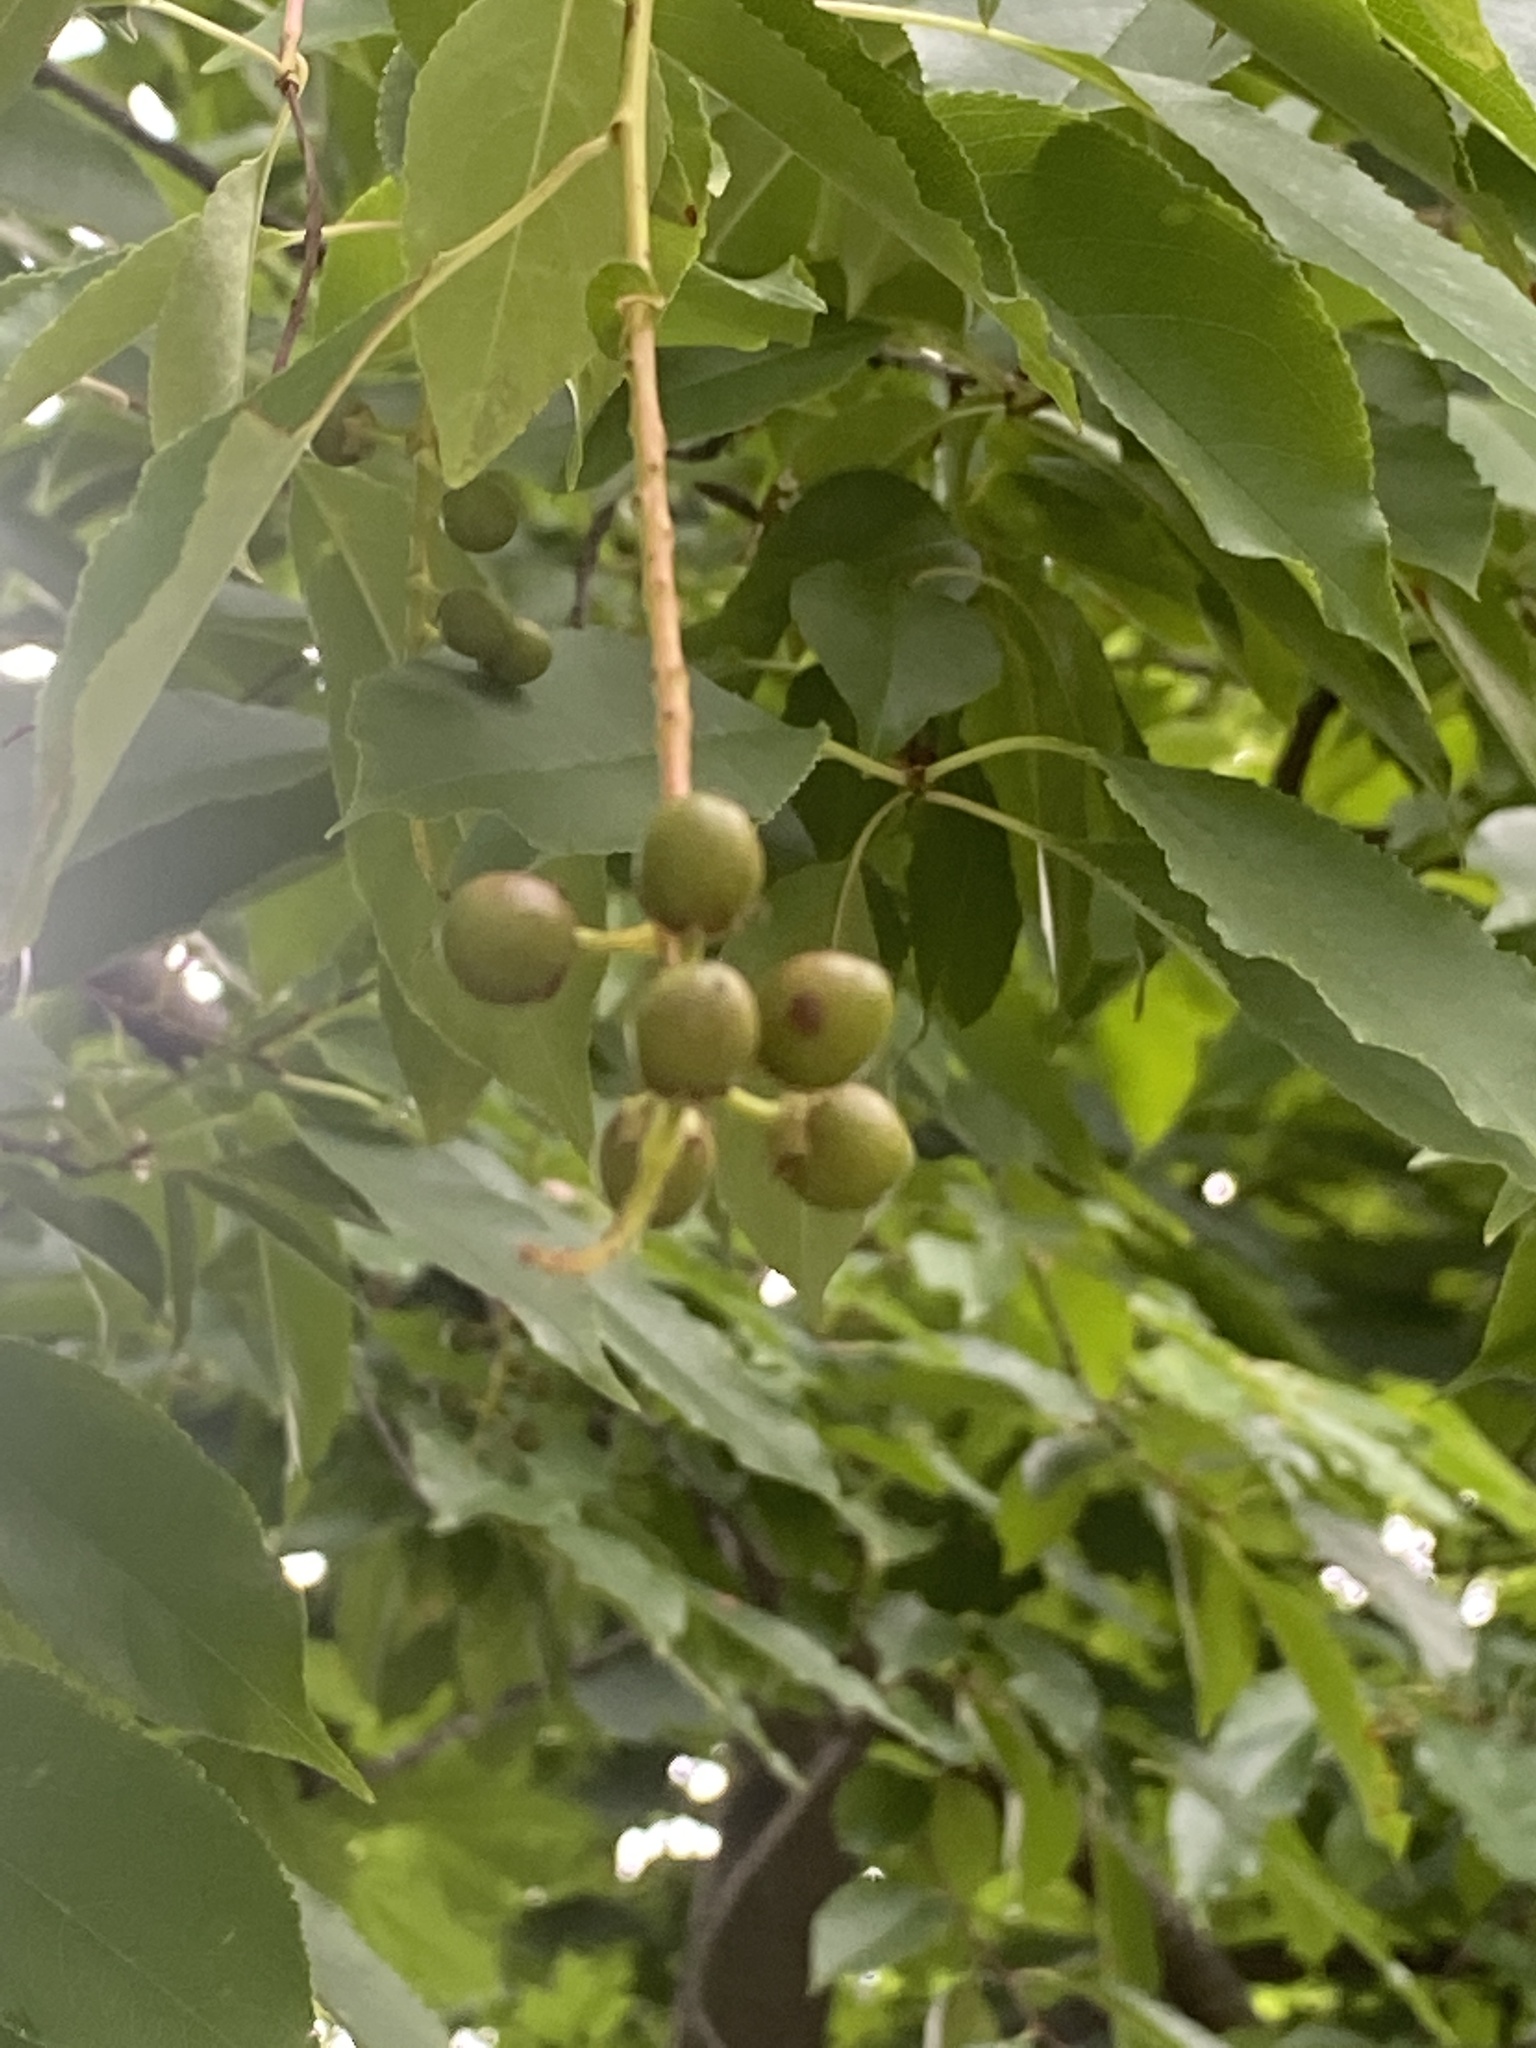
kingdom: Plantae
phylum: Tracheophyta
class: Magnoliopsida
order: Rosales
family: Rosaceae
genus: Prunus
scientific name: Prunus serotina
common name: Black cherry
